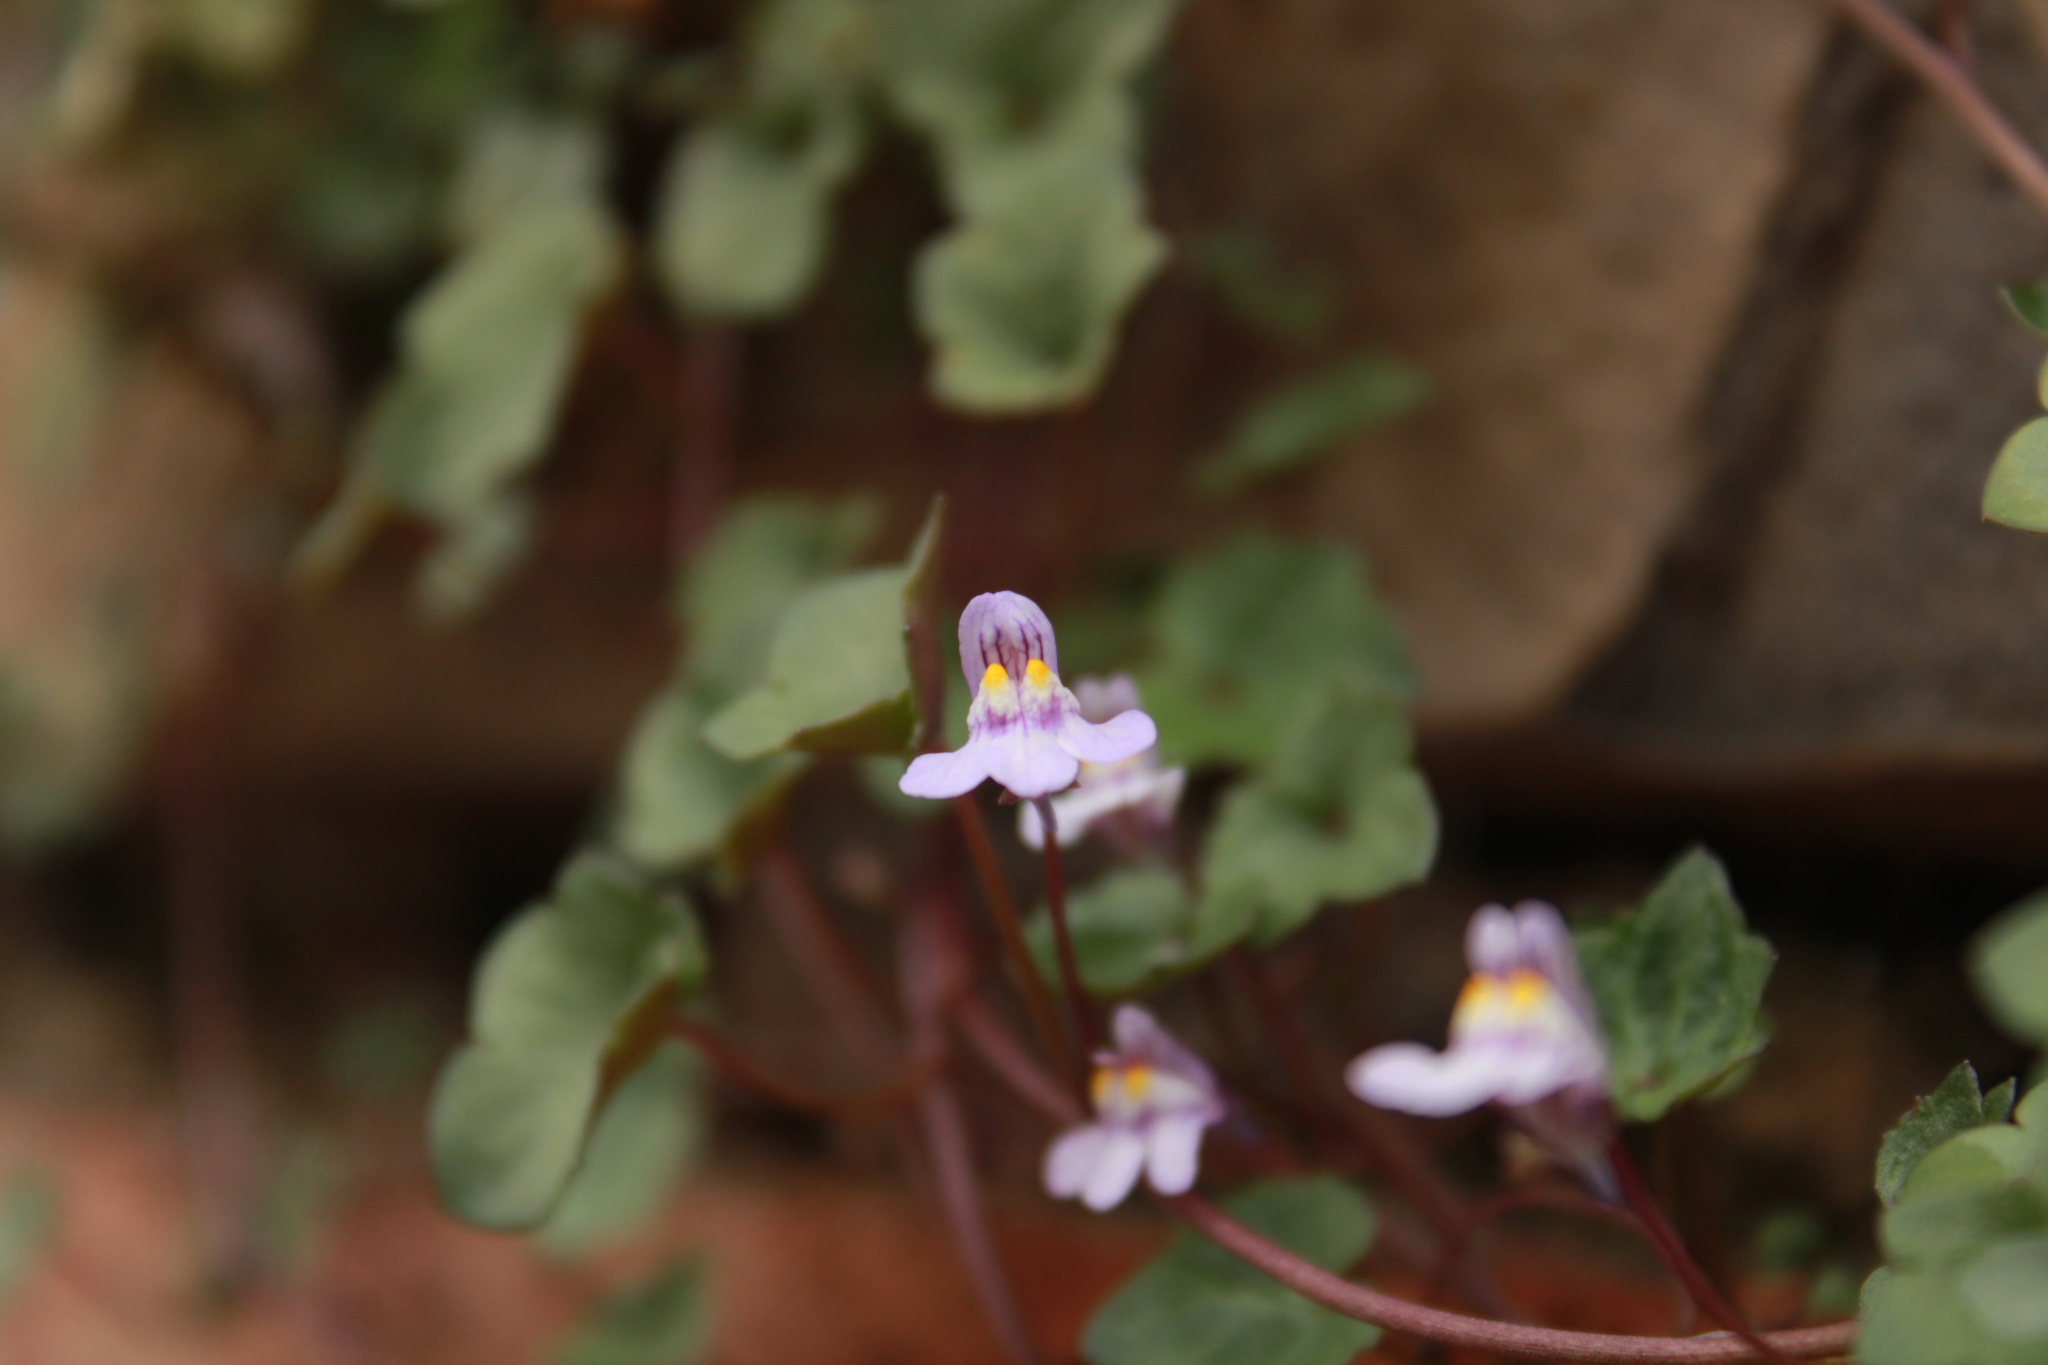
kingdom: Plantae
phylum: Tracheophyta
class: Magnoliopsida
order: Lamiales
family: Plantaginaceae
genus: Cymbalaria
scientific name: Cymbalaria muralis
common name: Ivy-leaved toadflax
